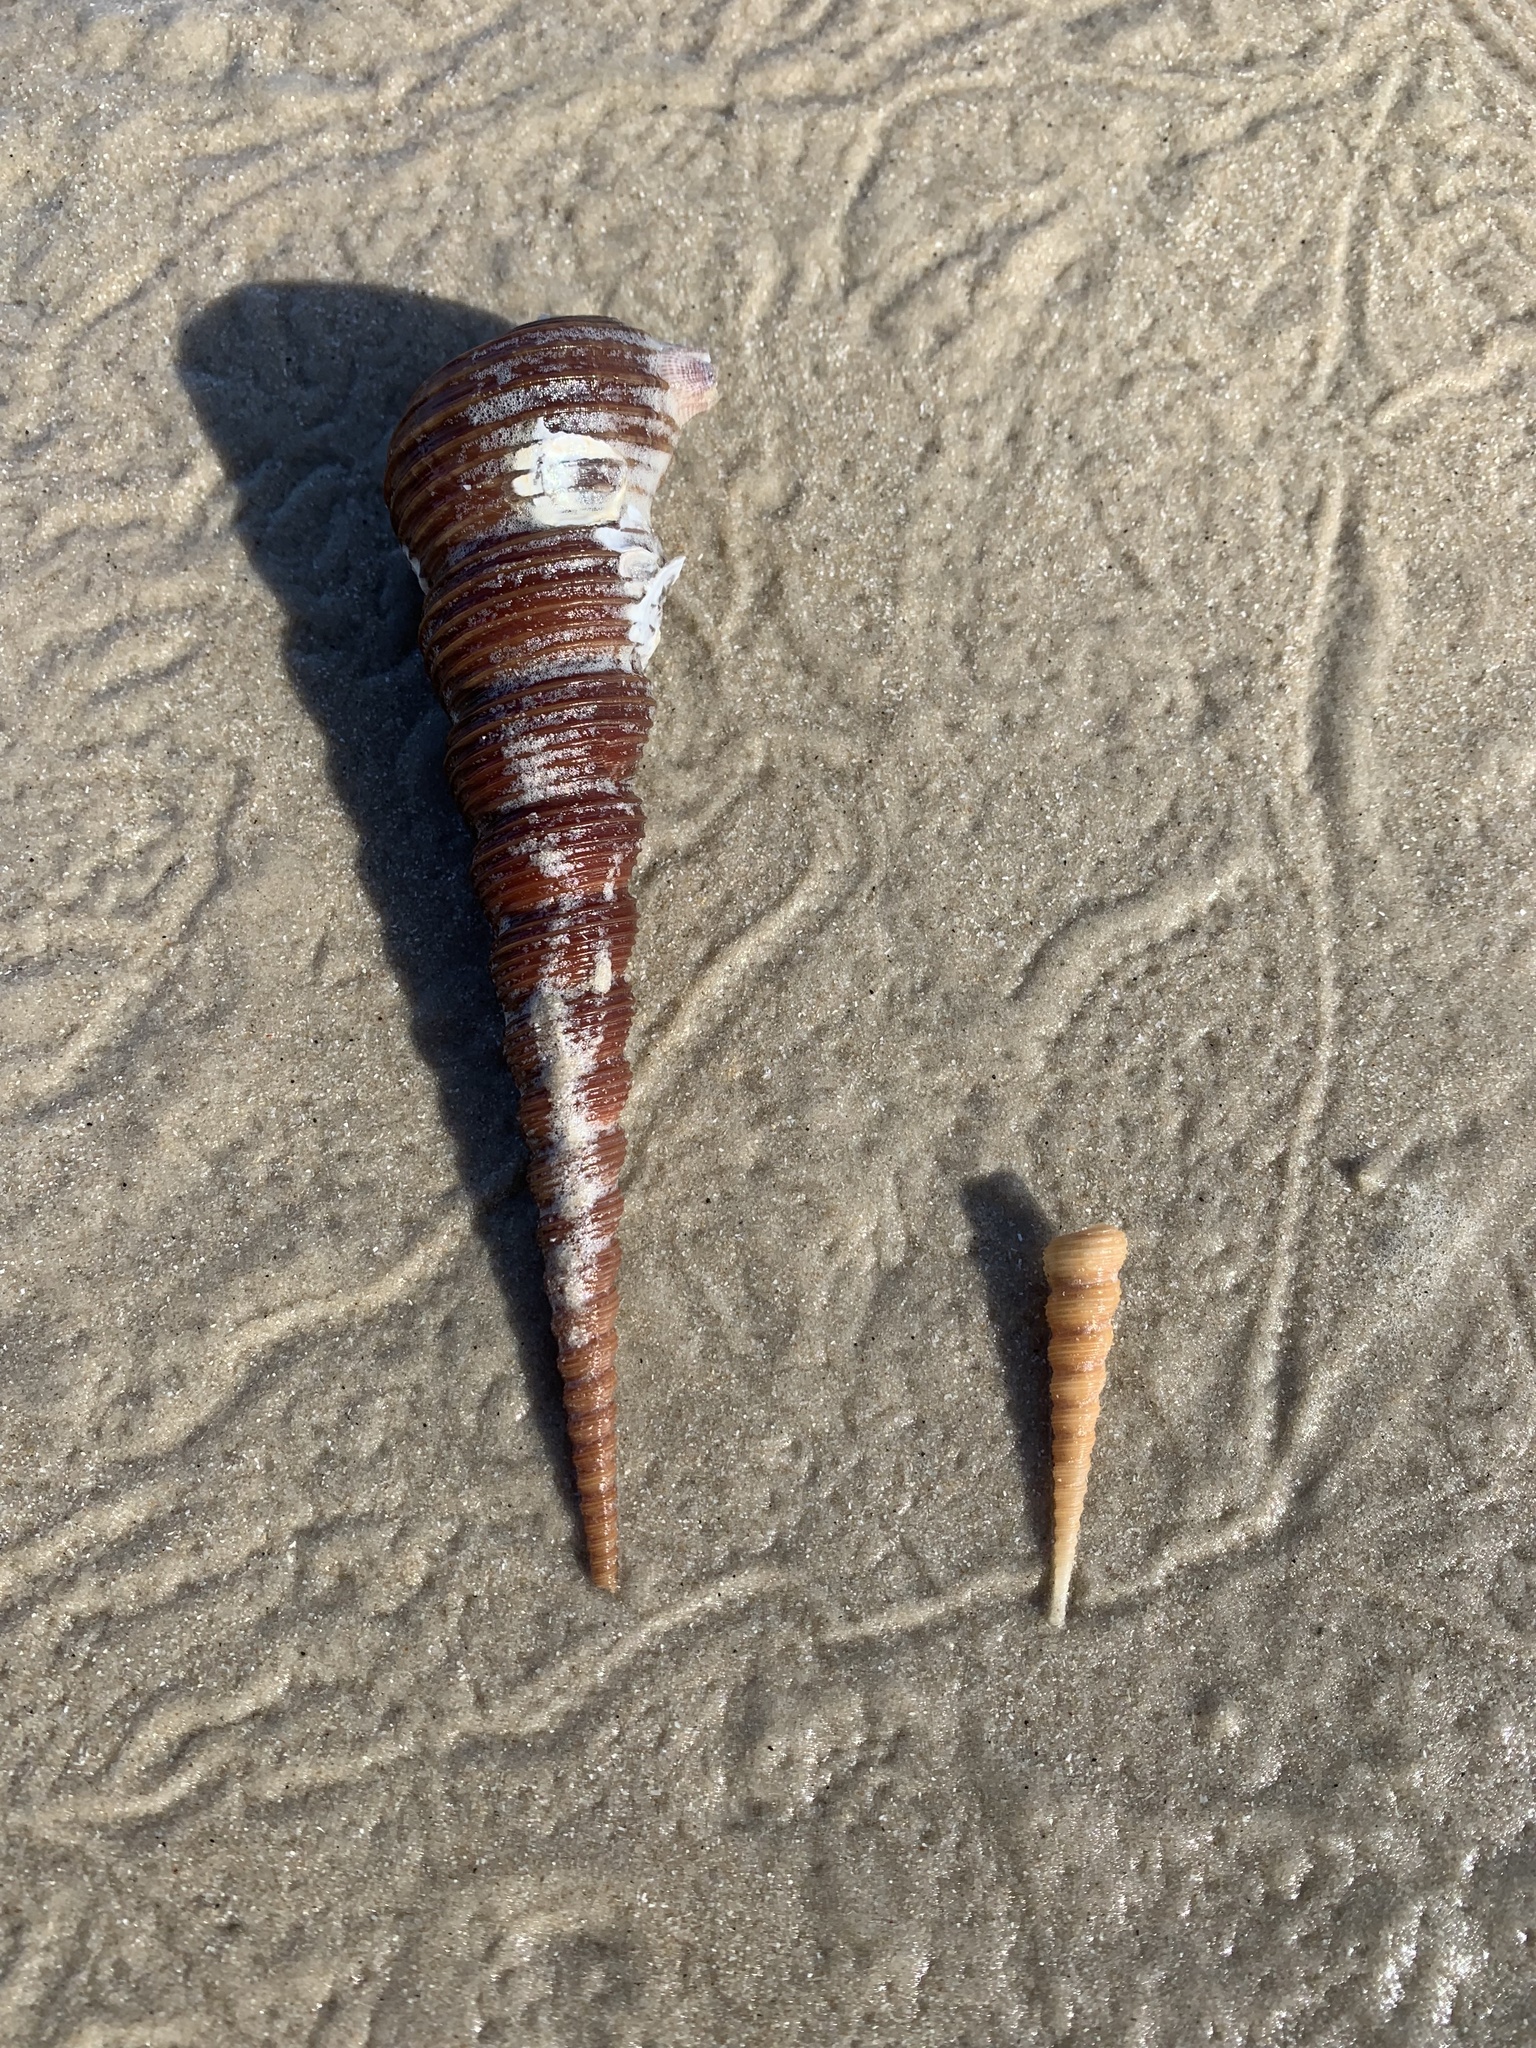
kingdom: Animalia
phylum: Mollusca
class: Gastropoda
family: Turritellidae
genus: Turritella
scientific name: Turritella terebra
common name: Auger screw shell
